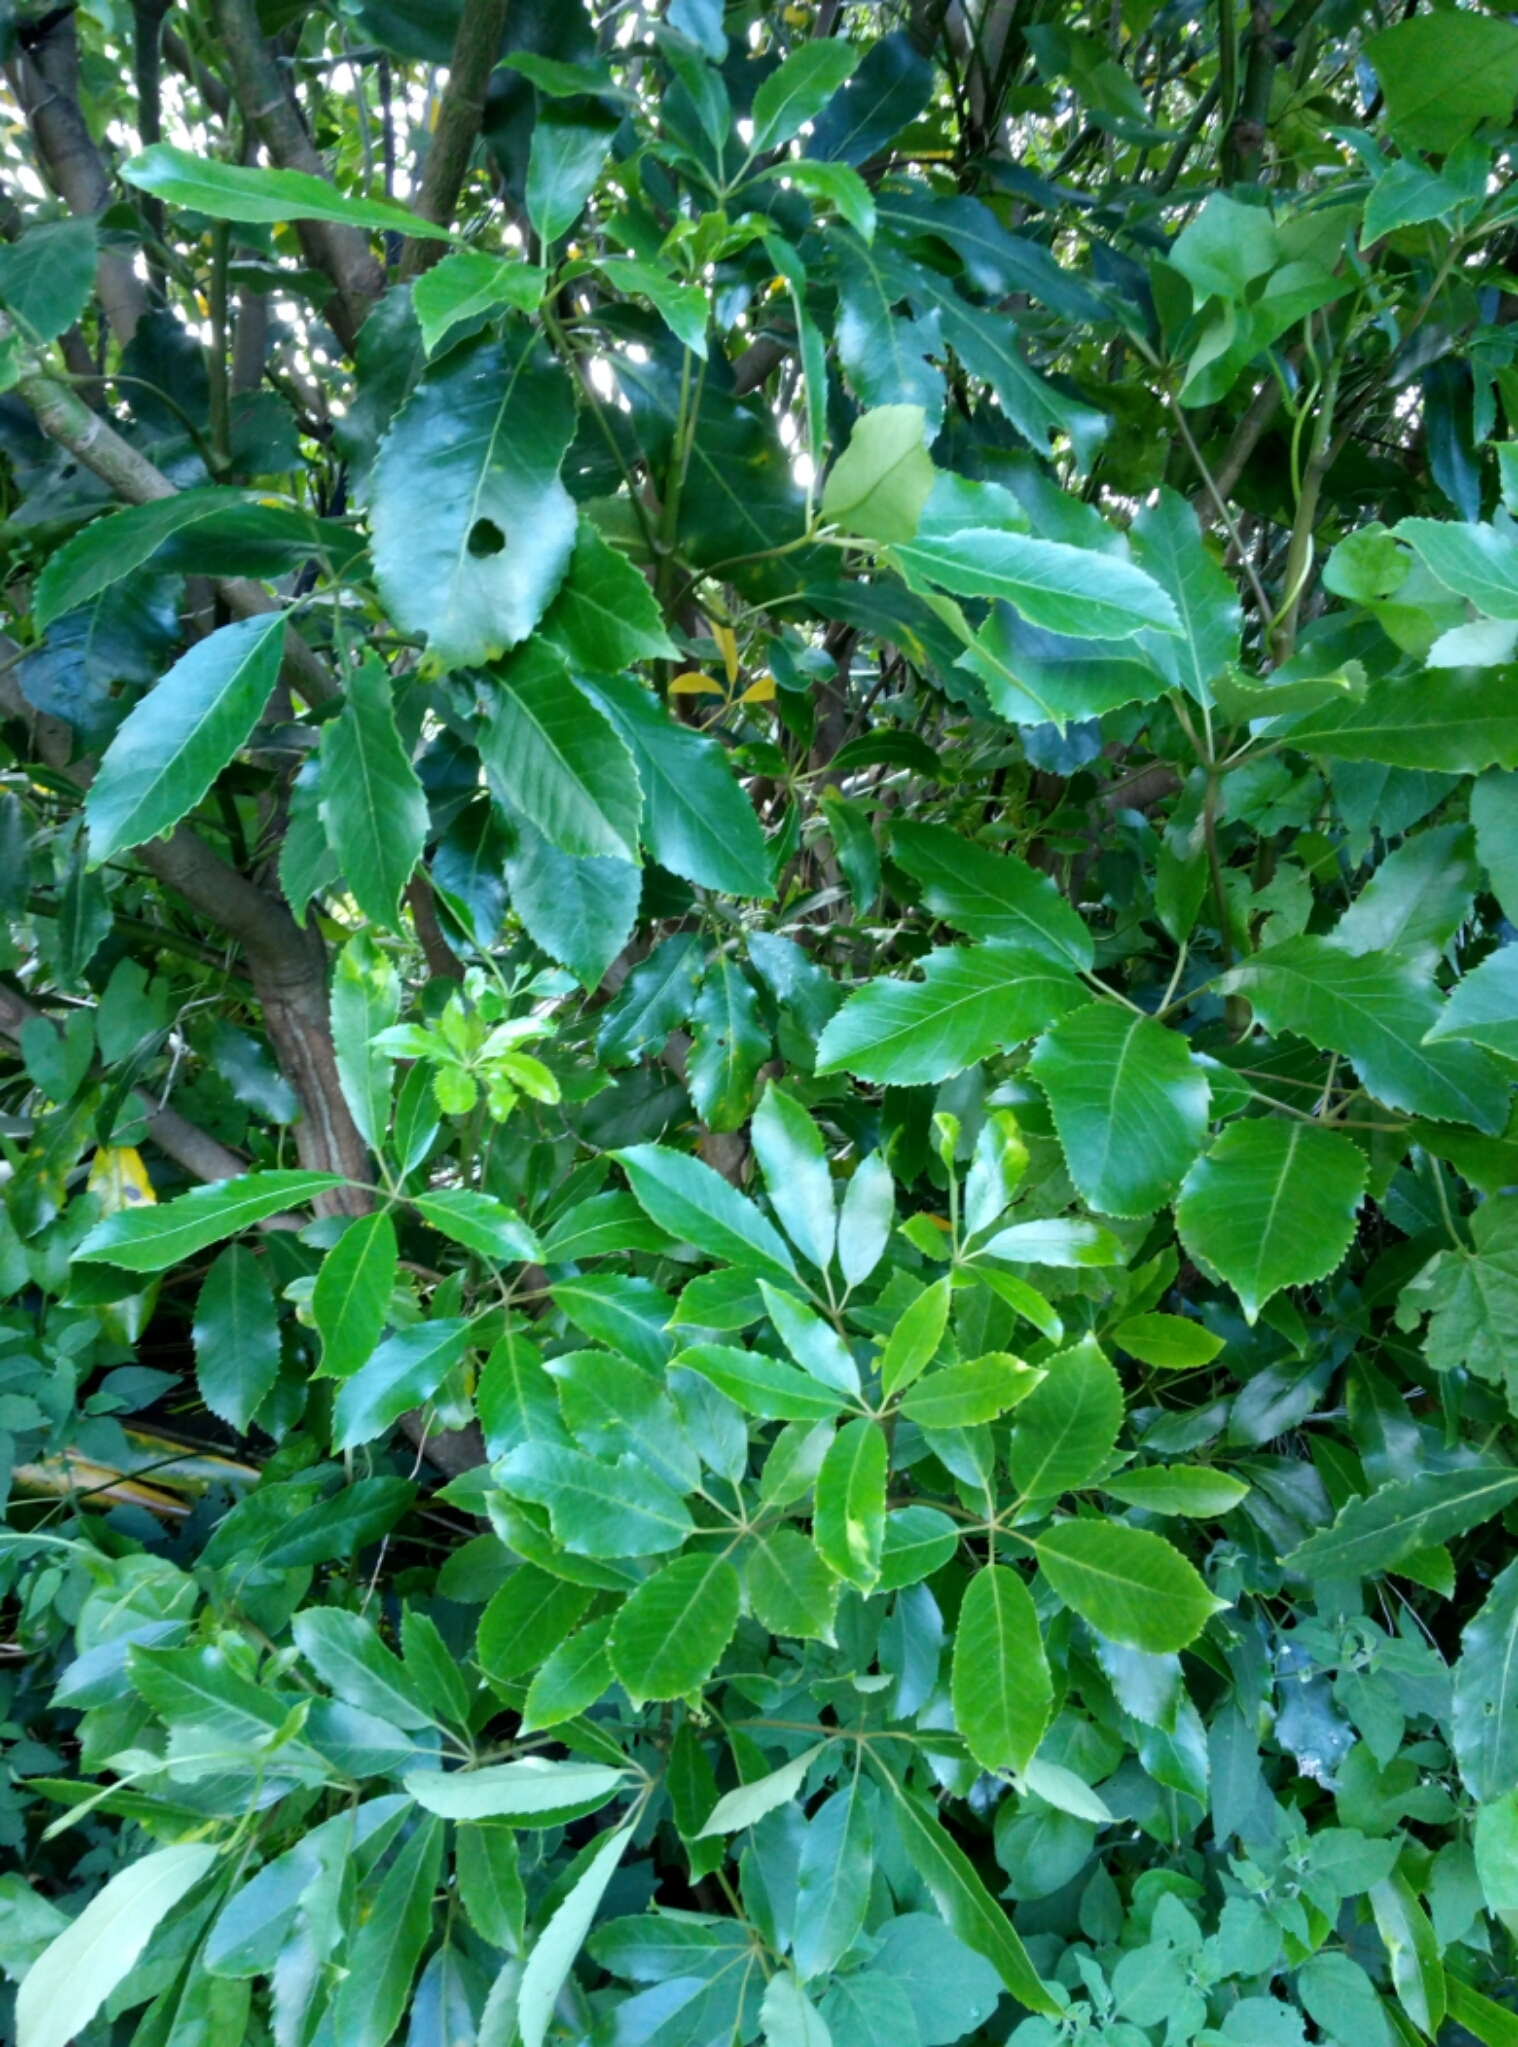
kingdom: Plantae
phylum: Tracheophyta
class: Magnoliopsida
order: Apiales
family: Araliaceae
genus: Neopanax
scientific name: Neopanax arboreus
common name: Five-fingers
